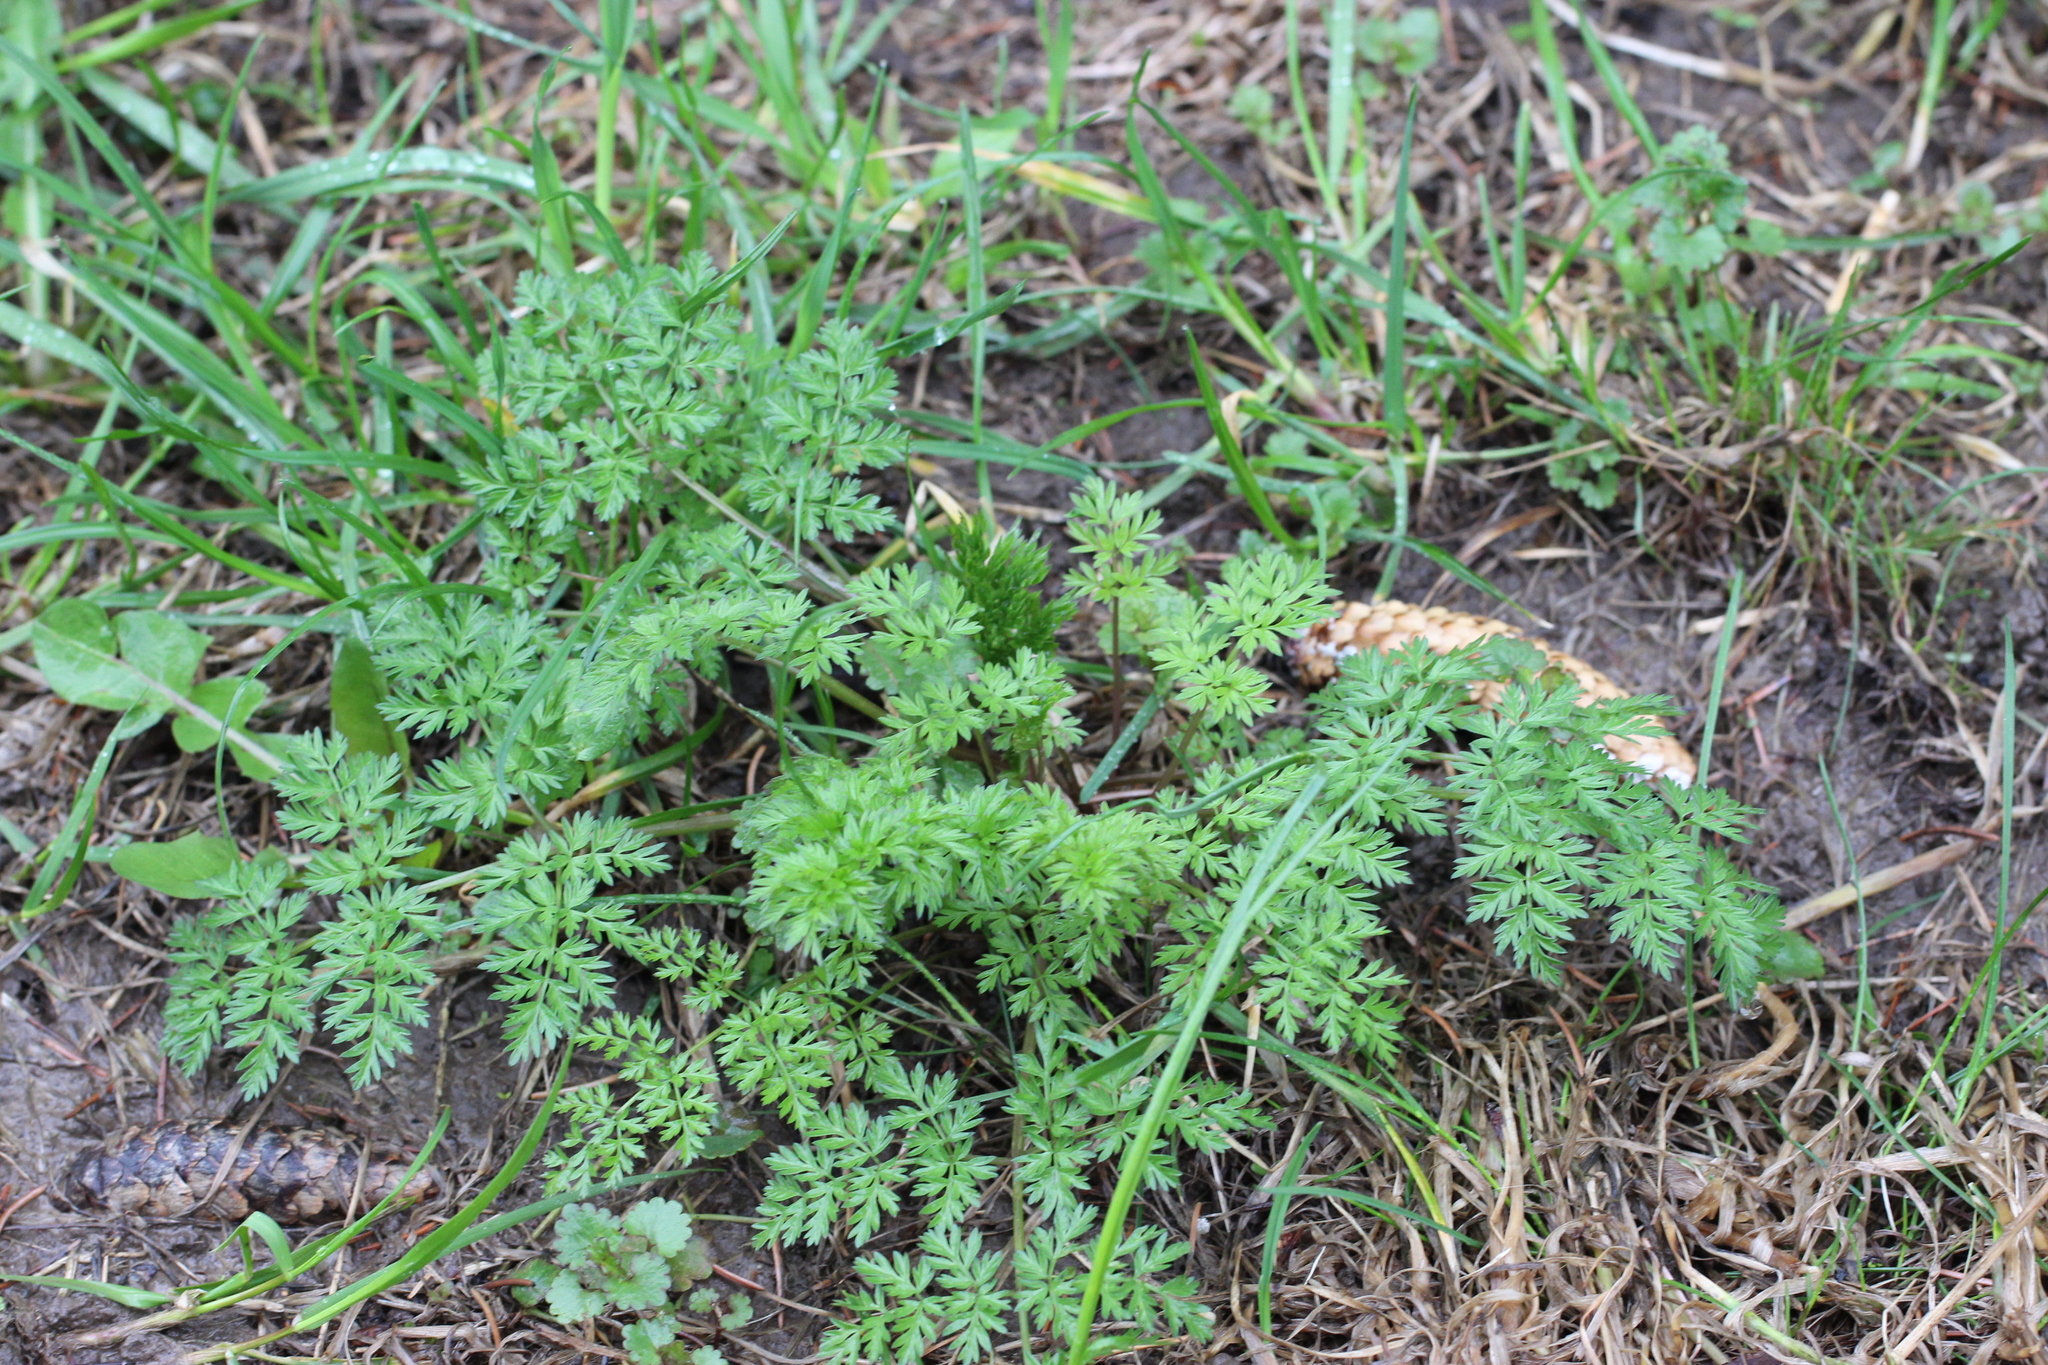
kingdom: Plantae
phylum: Tracheophyta
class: Magnoliopsida
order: Apiales
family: Apiaceae
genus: Anthriscus
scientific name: Anthriscus sylvestris
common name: Cow parsley
